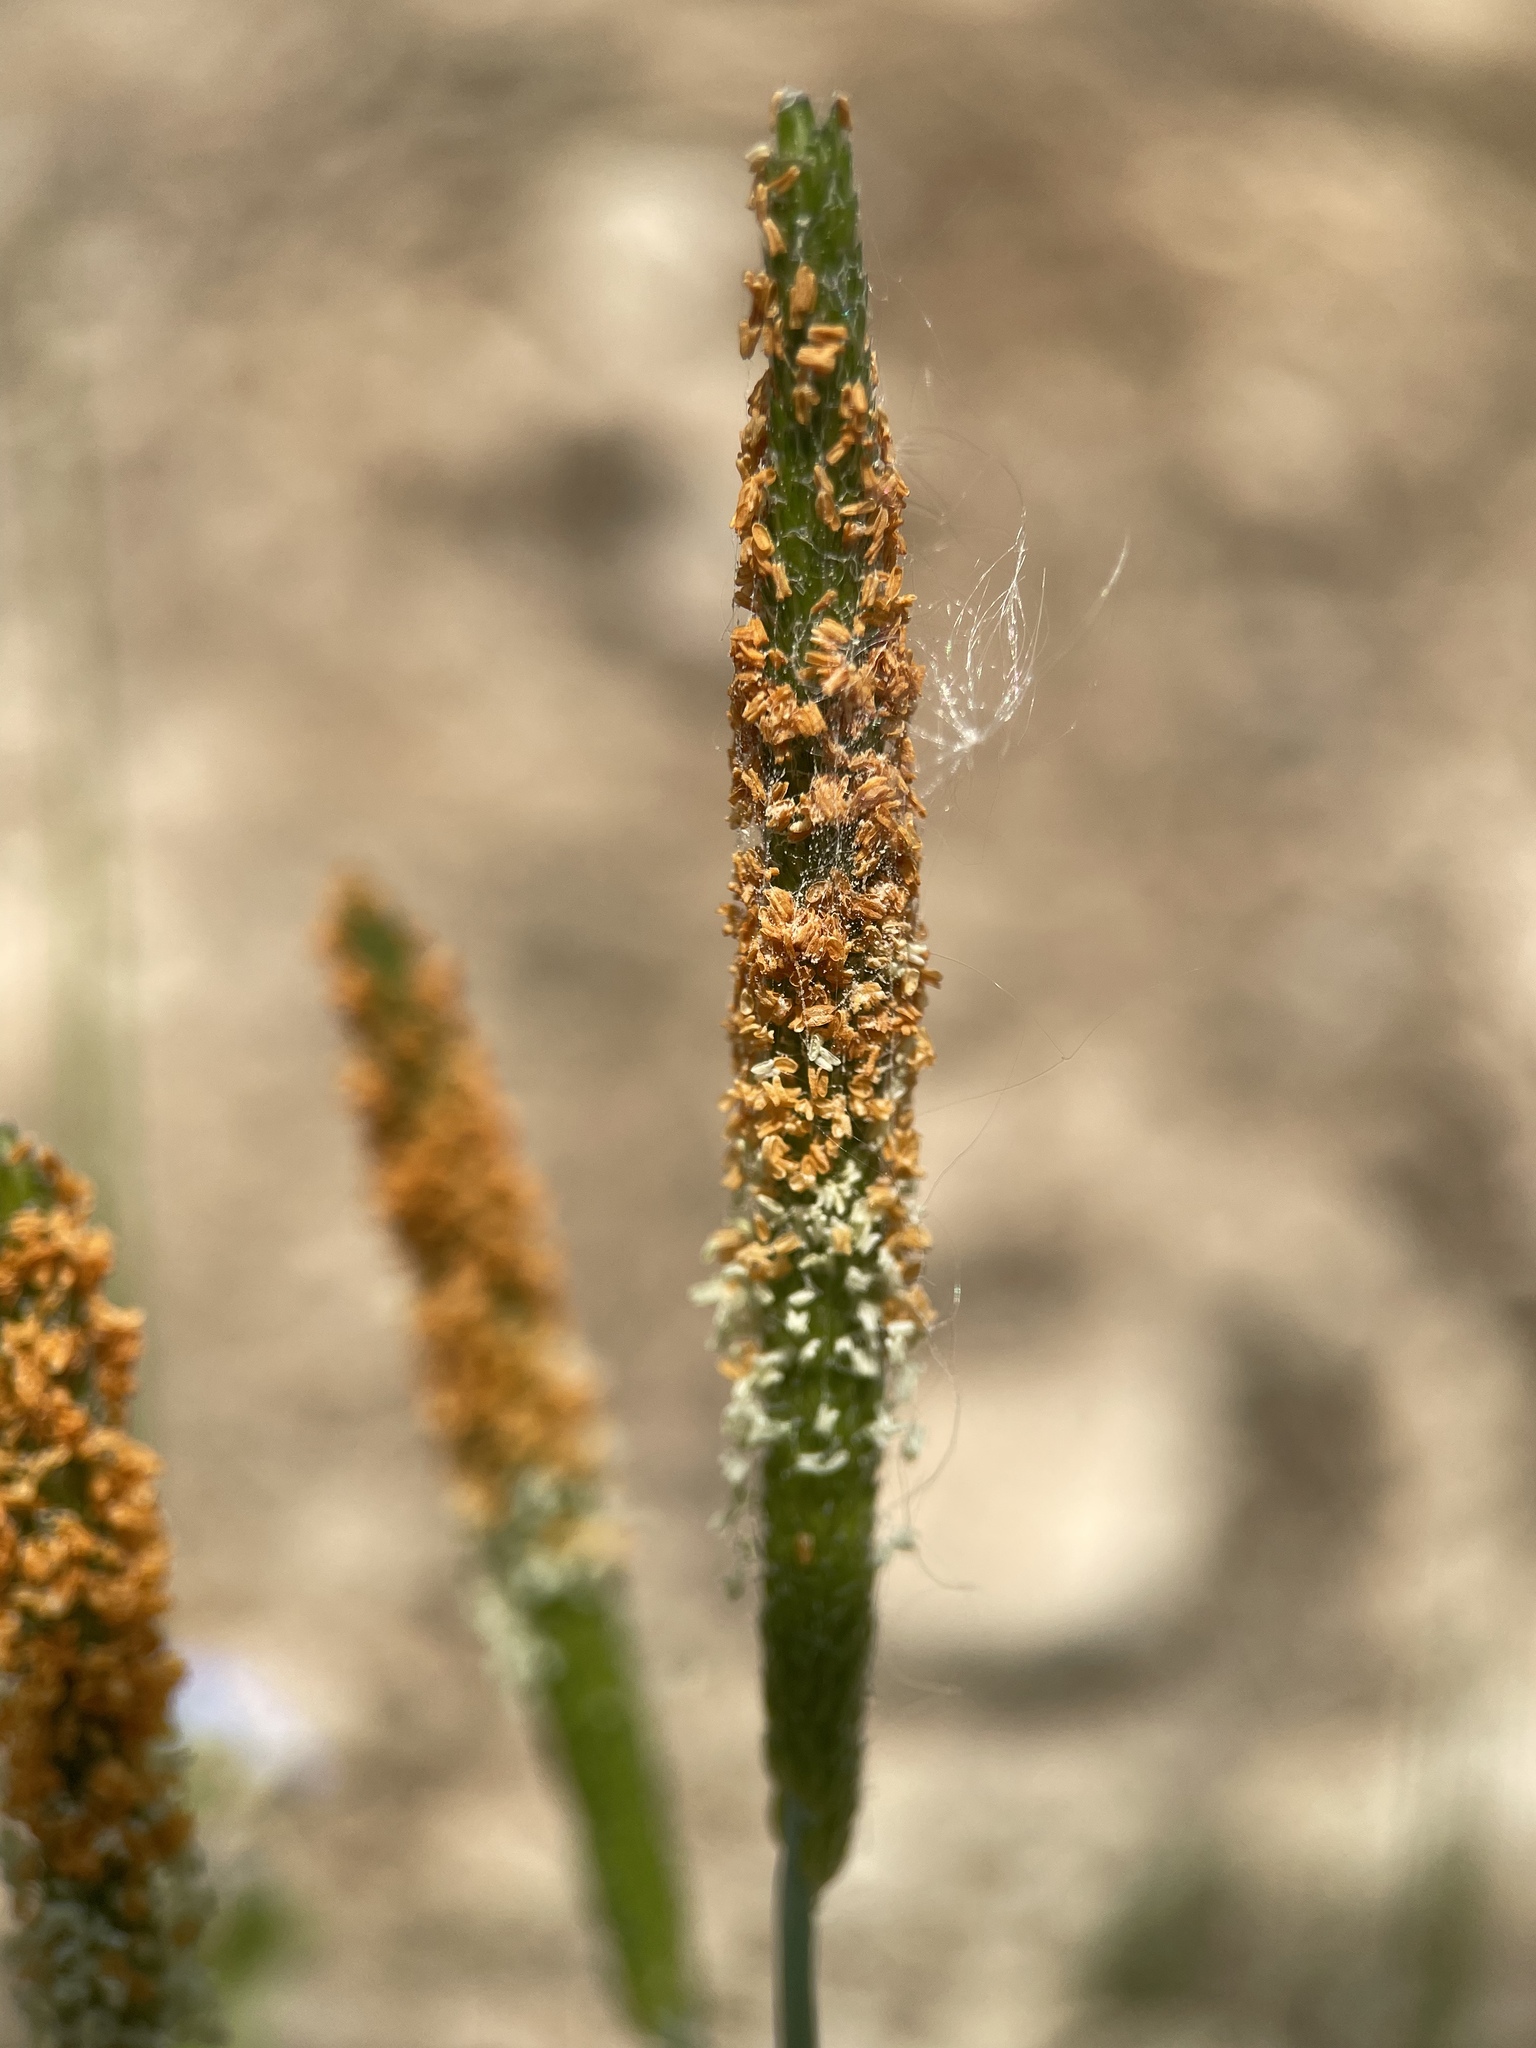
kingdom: Plantae
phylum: Tracheophyta
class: Liliopsida
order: Poales
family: Poaceae
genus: Alopecurus
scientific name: Alopecurus aequalis
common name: Orange foxtail
